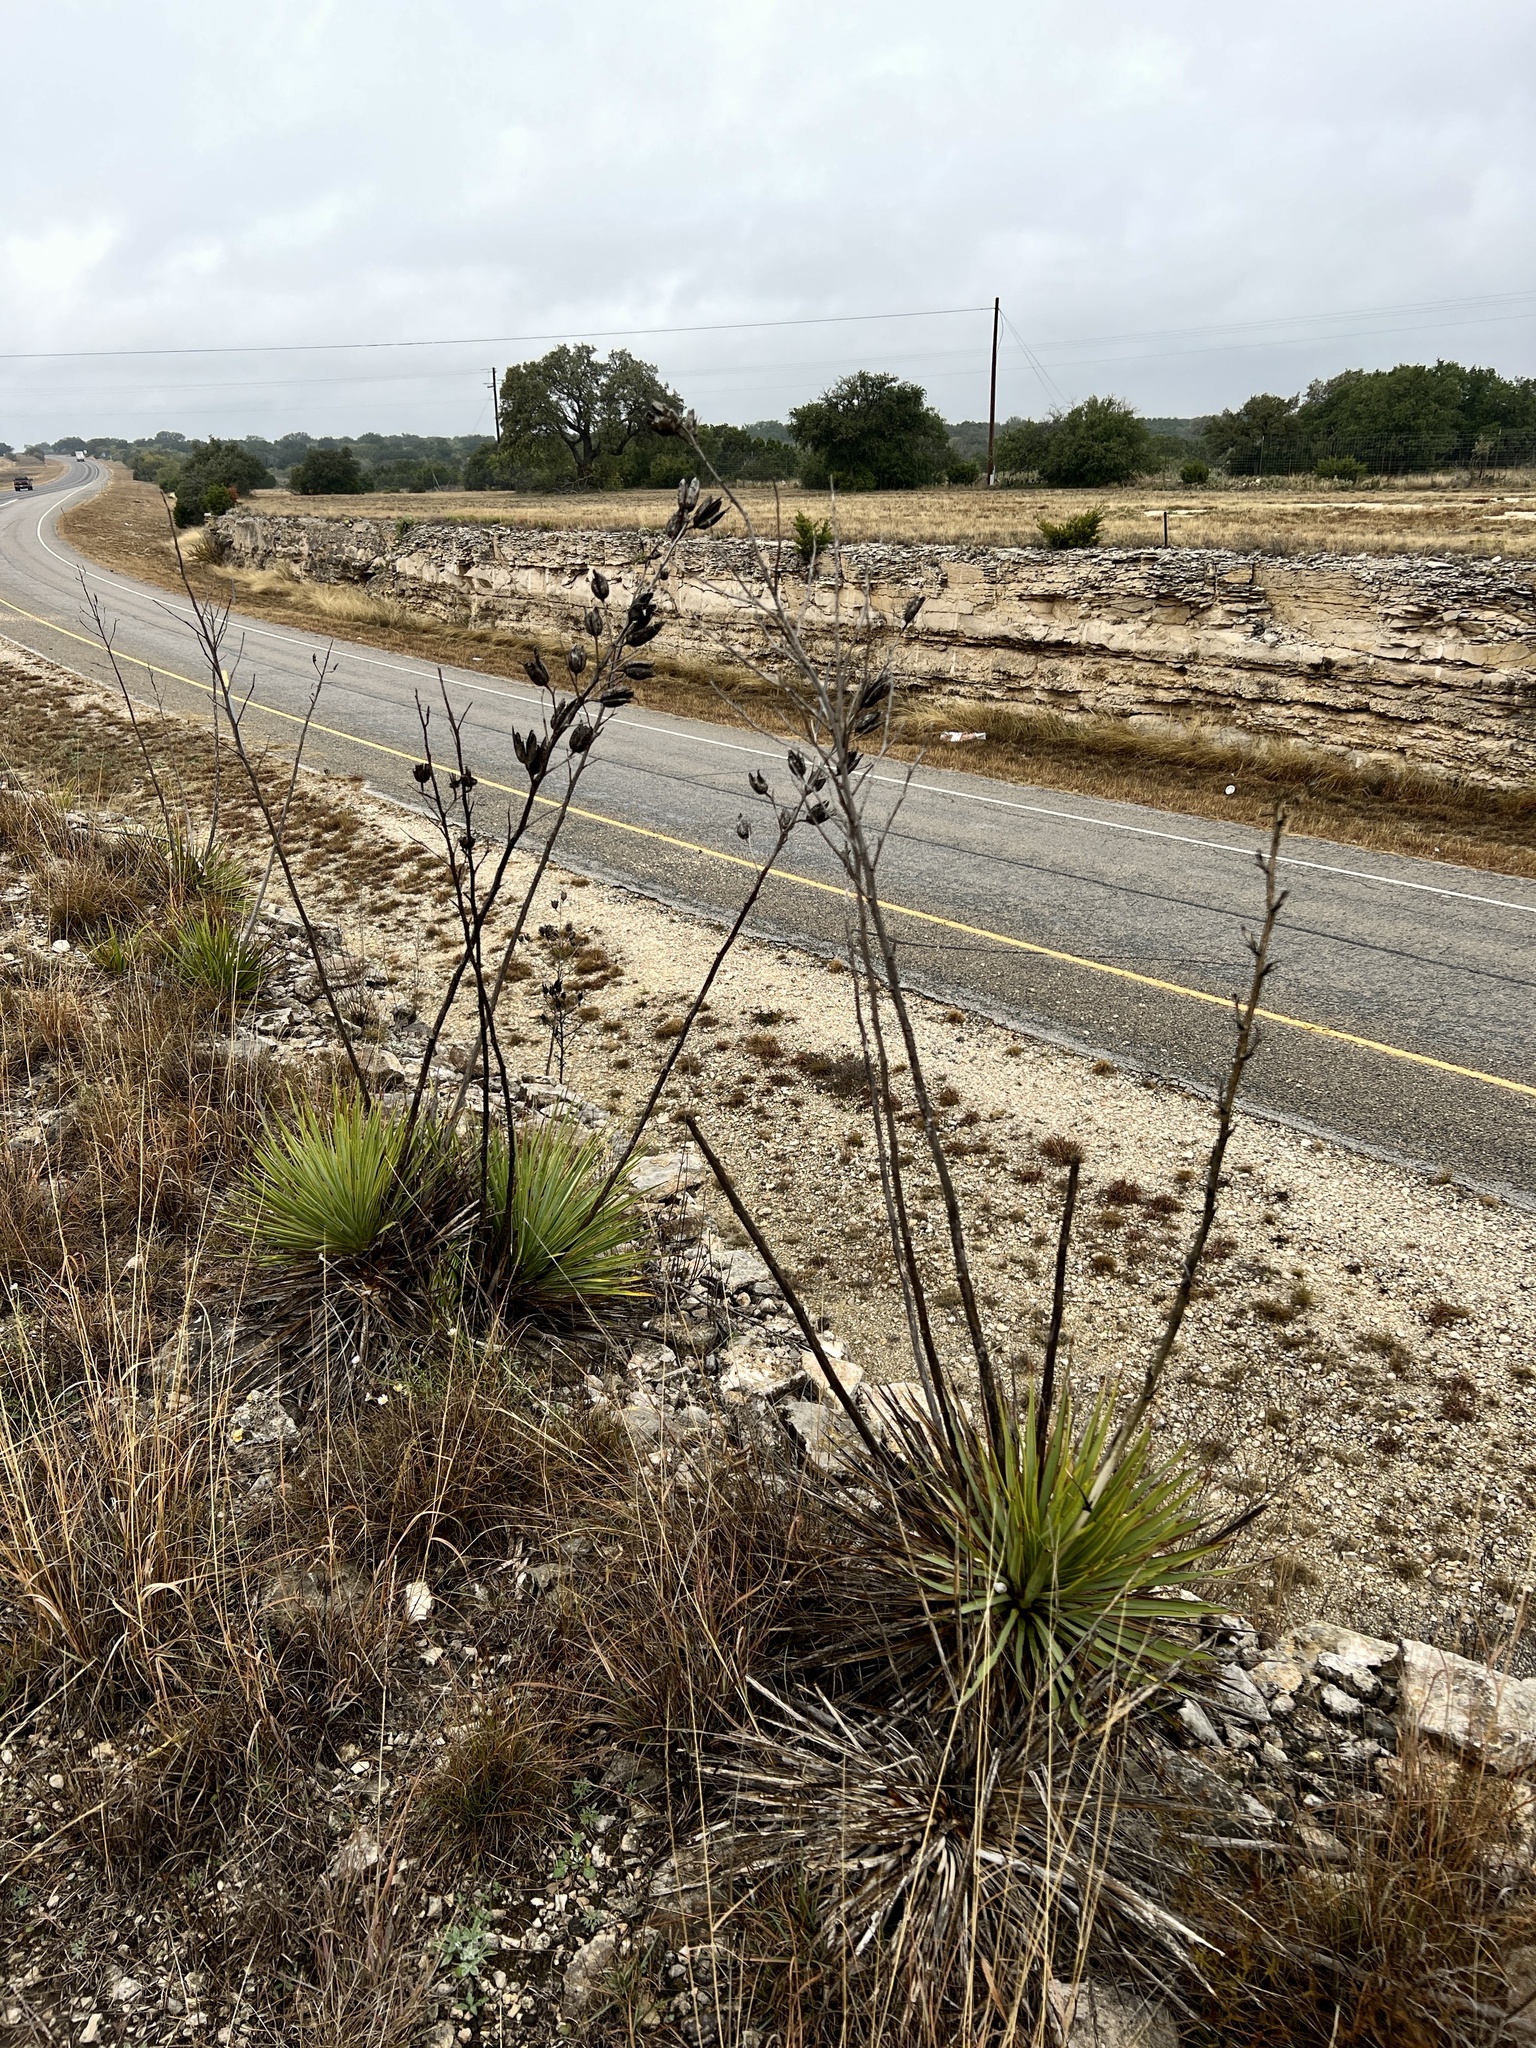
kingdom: Plantae
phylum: Tracheophyta
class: Liliopsida
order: Asparagales
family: Asparagaceae
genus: Yucca
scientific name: Yucca reverchonii
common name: San angelo yucca
